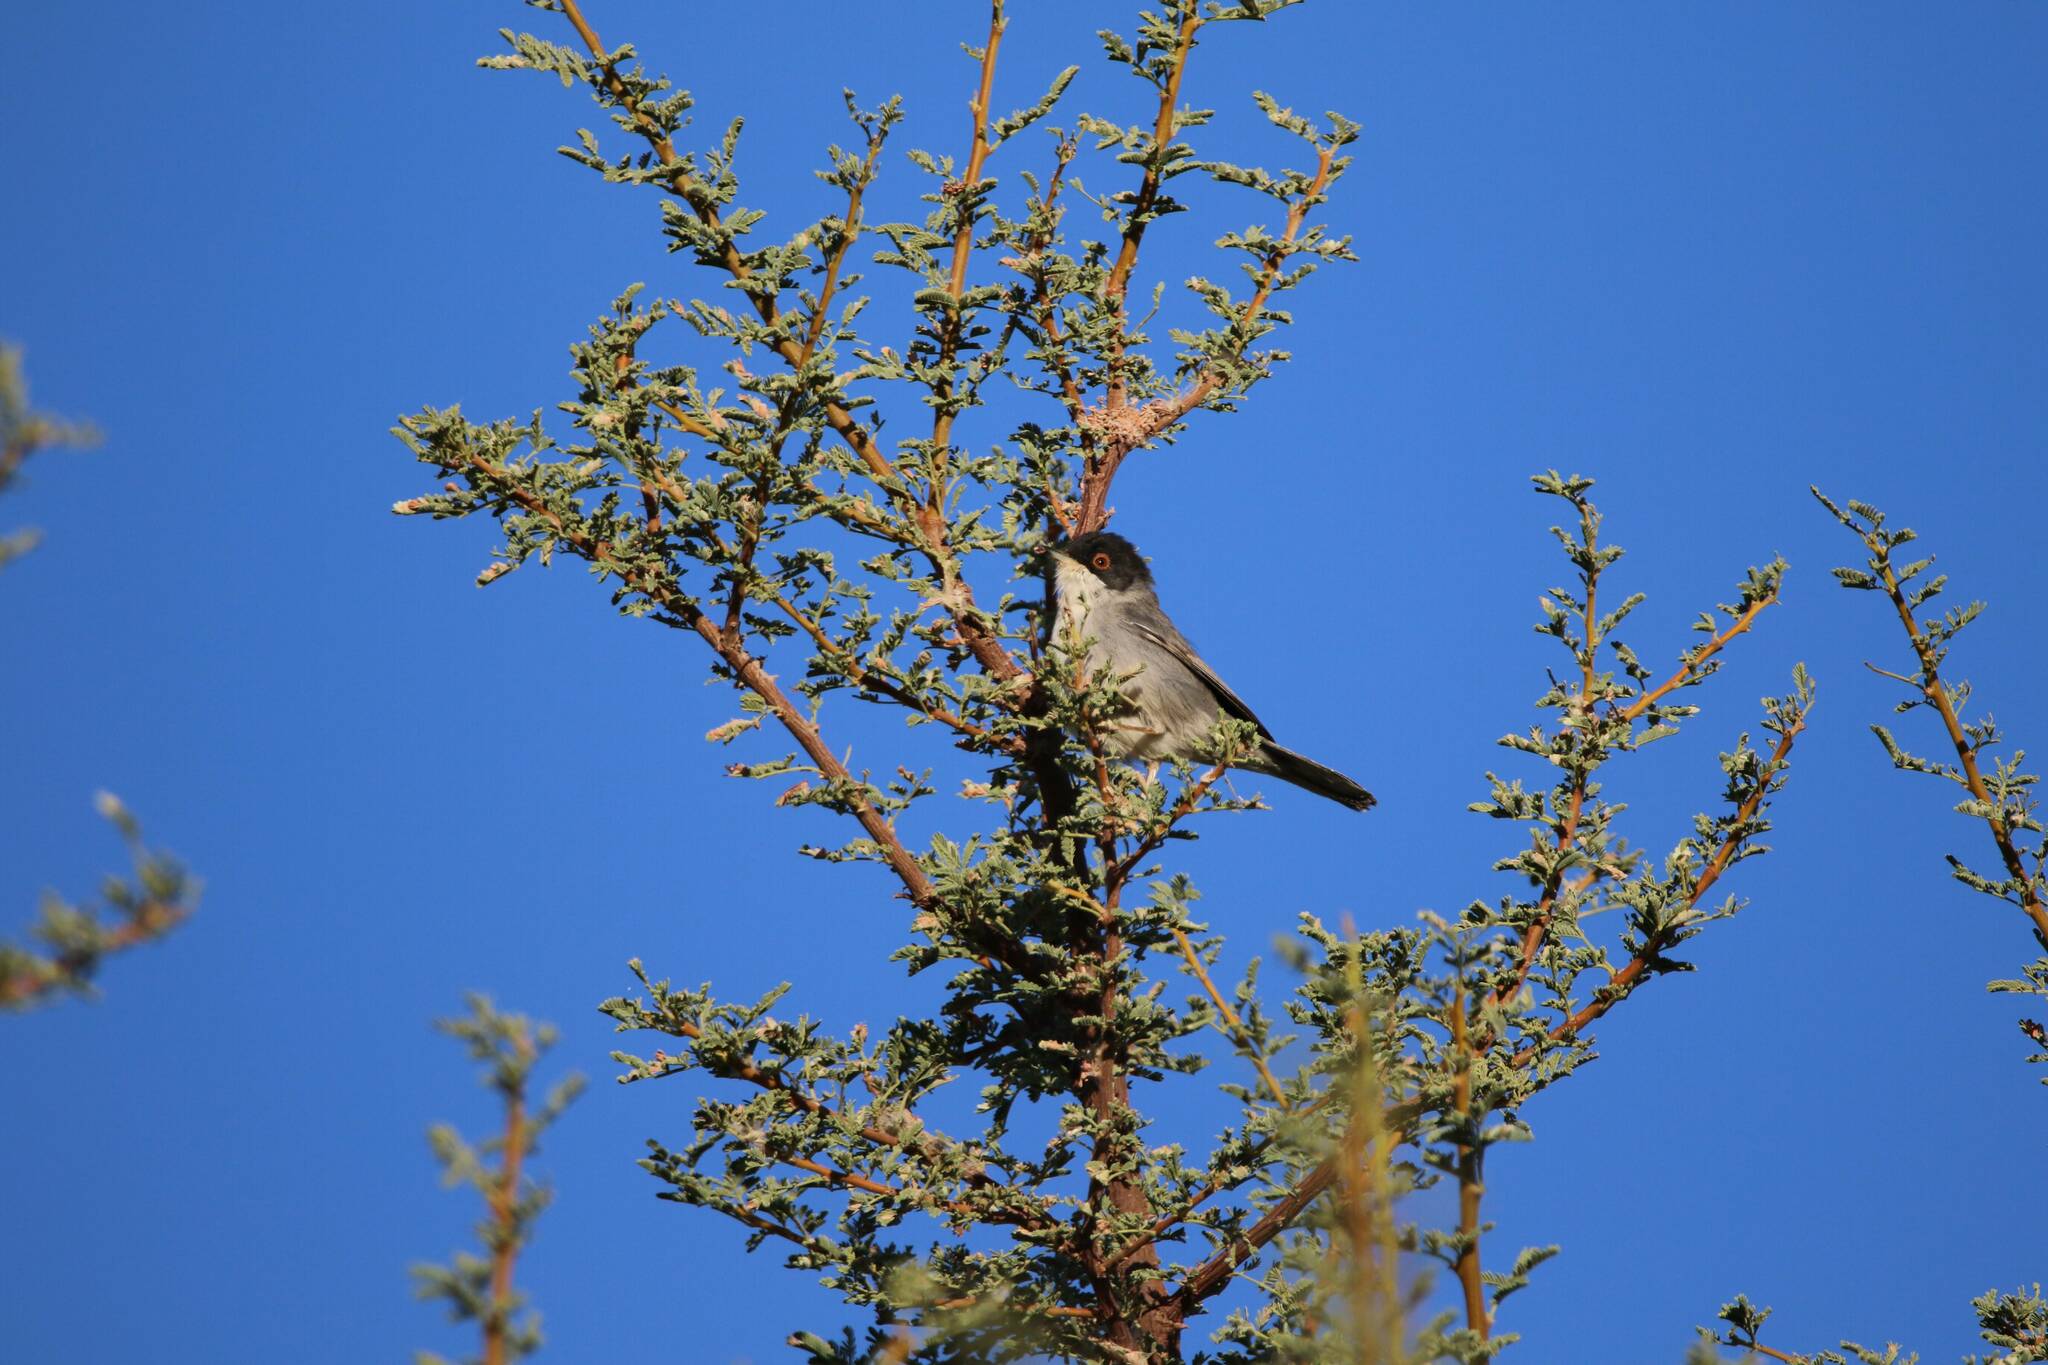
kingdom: Animalia
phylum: Chordata
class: Aves
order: Passeriformes
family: Sylviidae
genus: Curruca
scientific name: Curruca melanocephala
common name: Sardinian warbler
